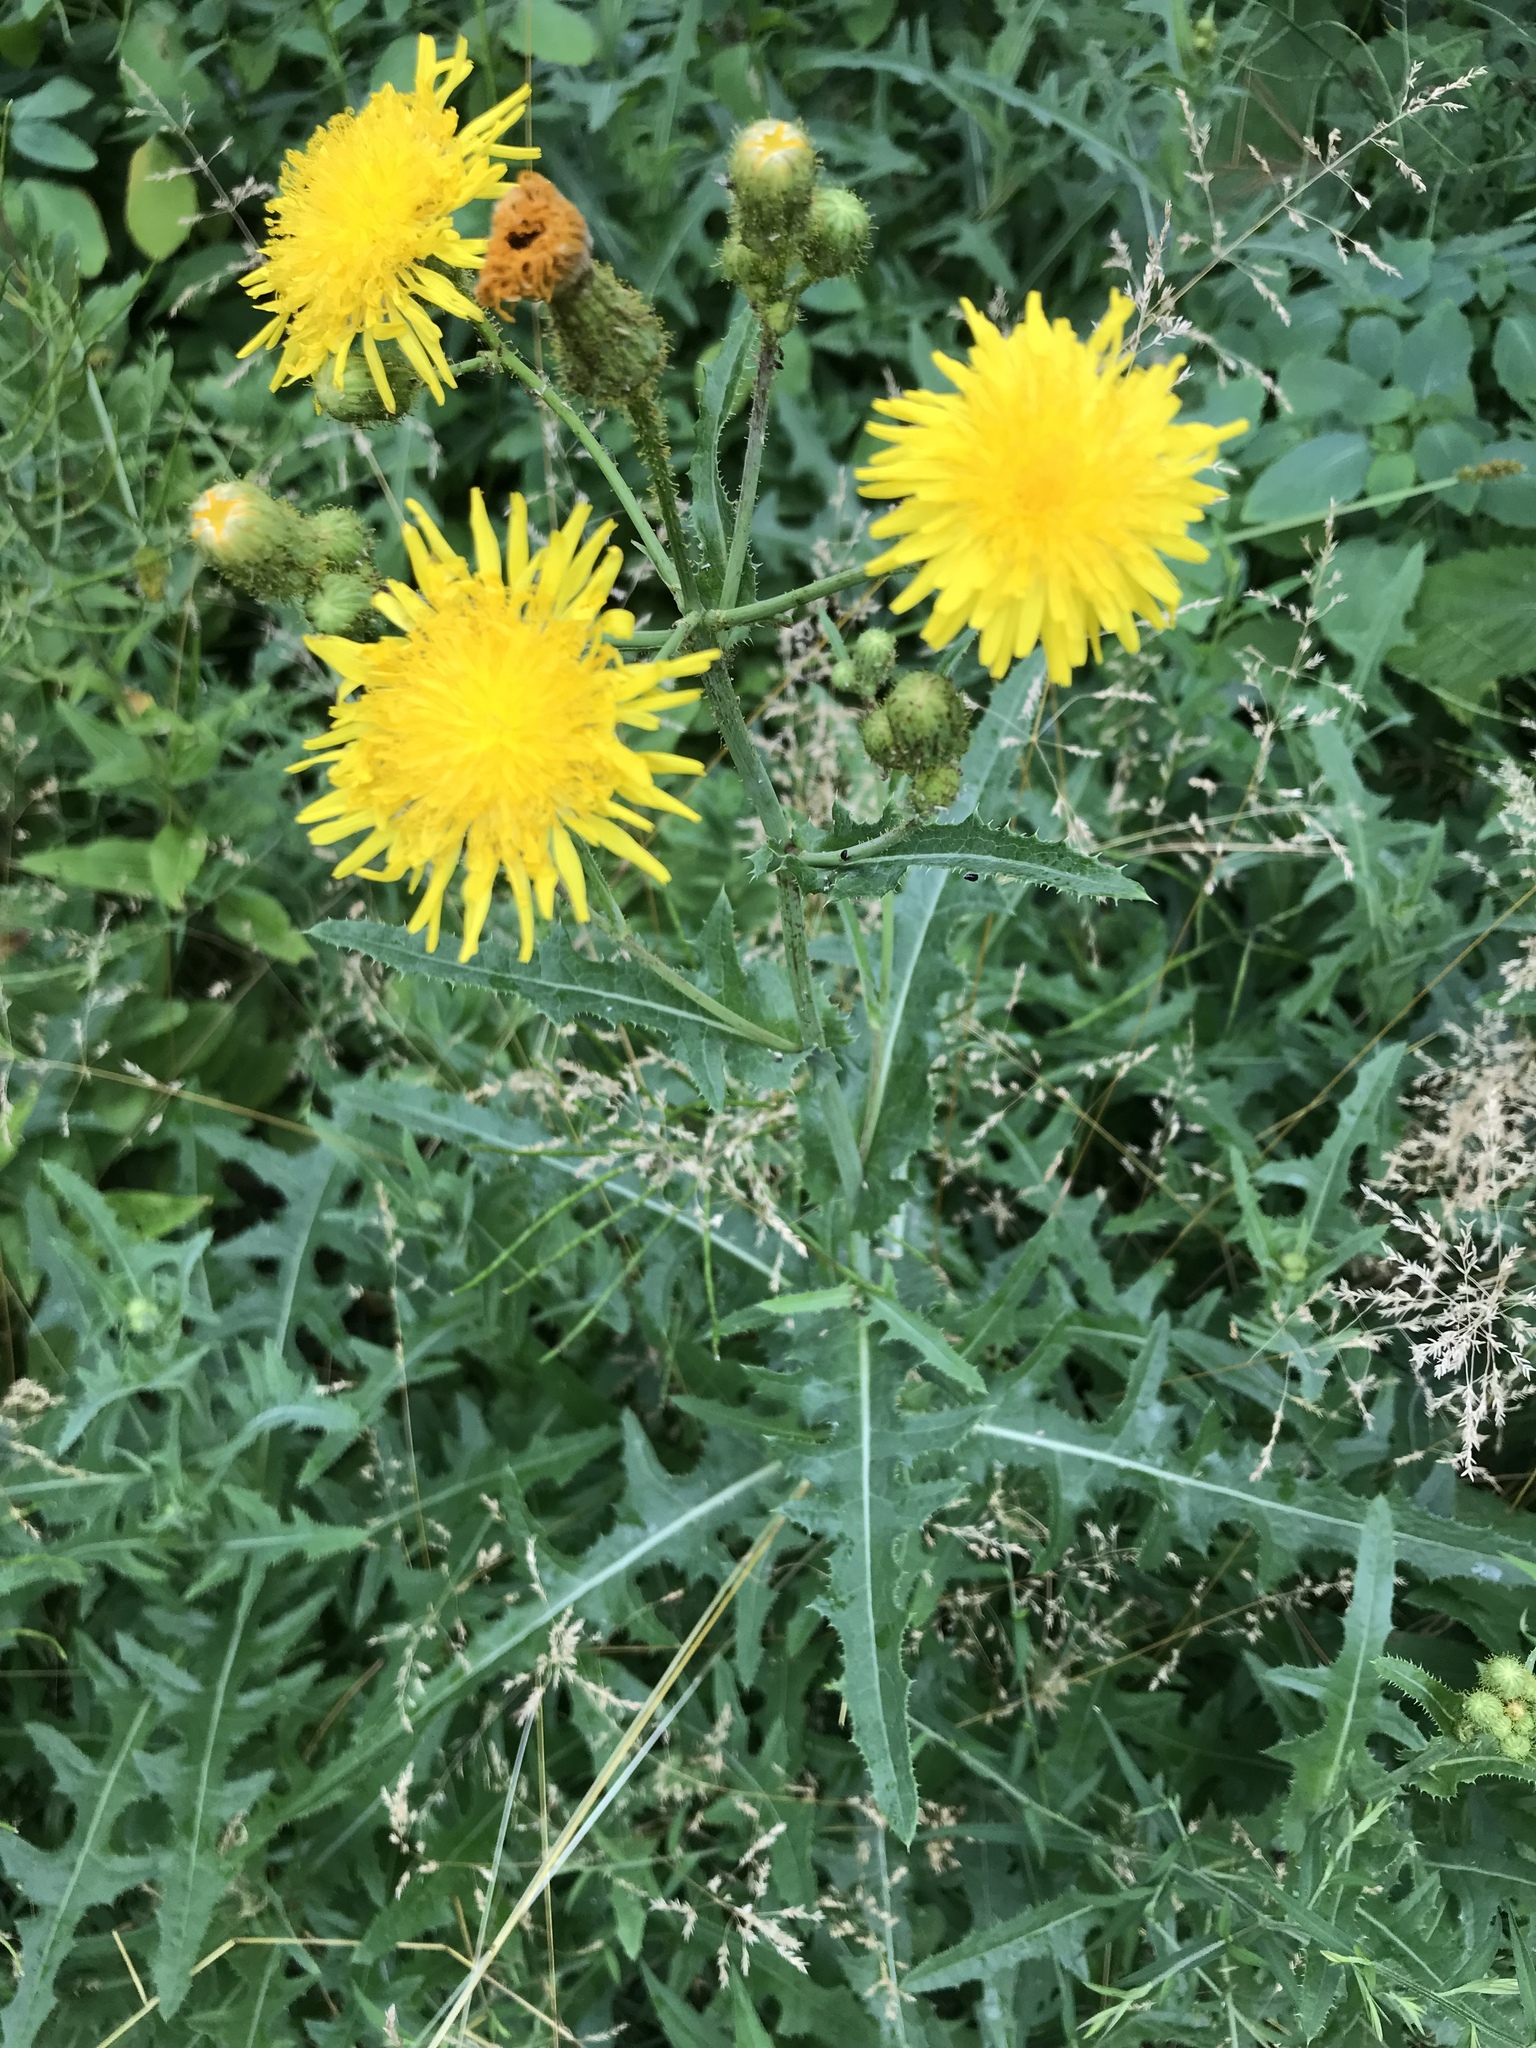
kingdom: Plantae
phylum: Tracheophyta
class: Magnoliopsida
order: Asterales
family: Asteraceae
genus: Sonchus
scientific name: Sonchus arvensis
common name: Perennial sow-thistle
